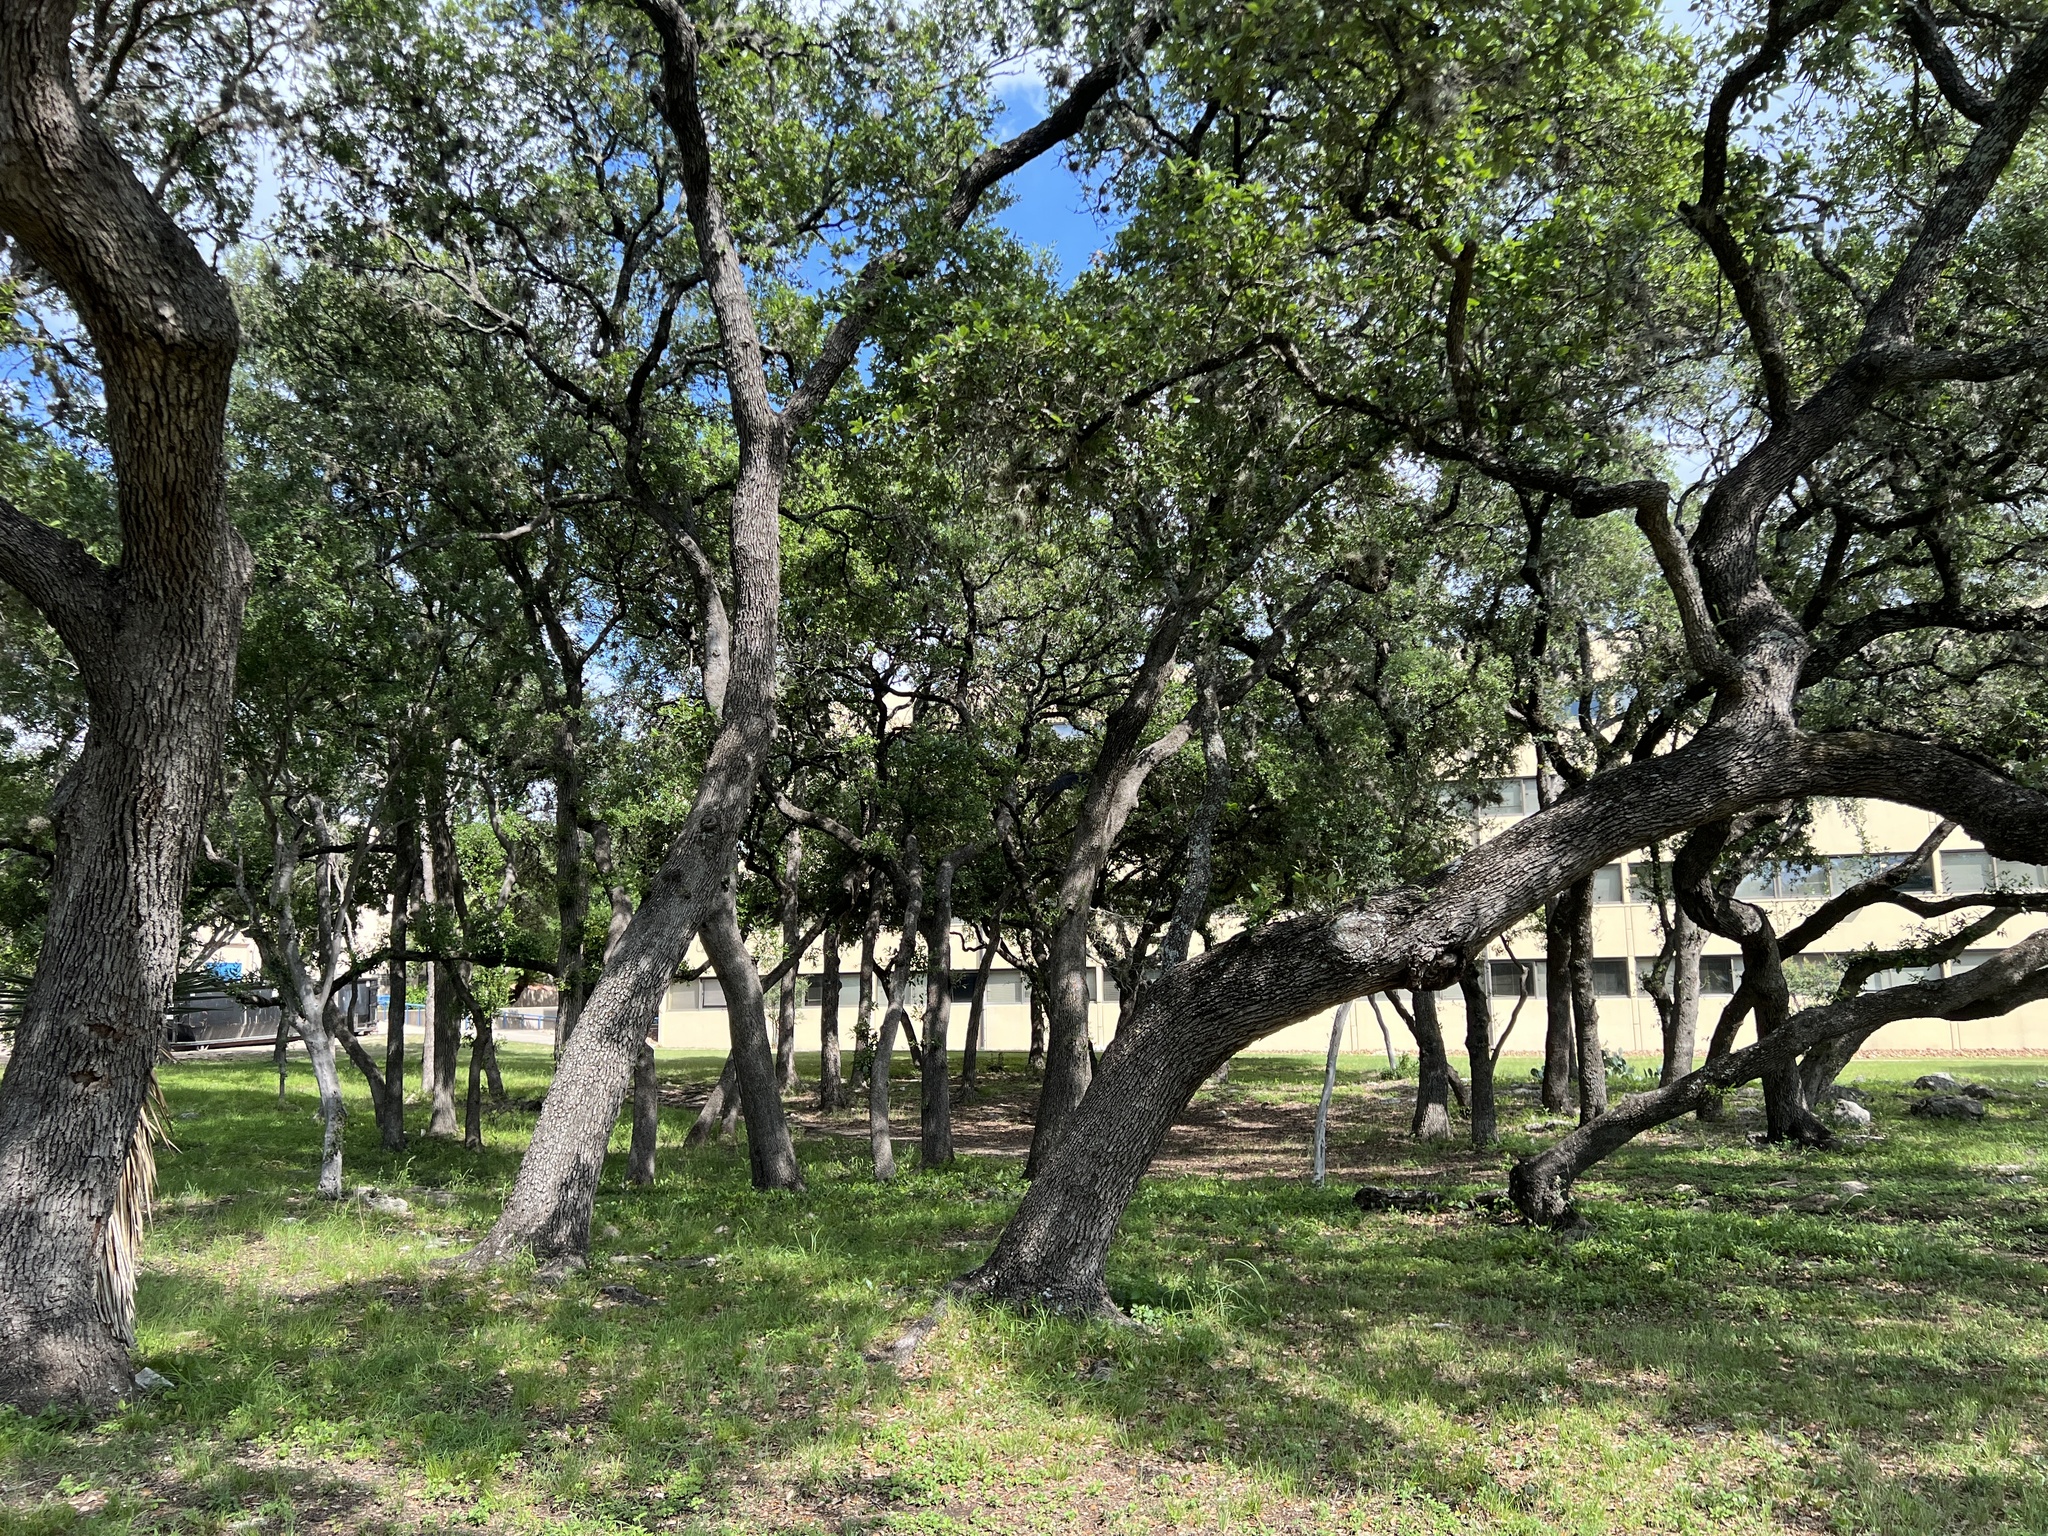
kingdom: Animalia
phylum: Chordata
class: Aves
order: Passeriformes
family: Corvidae
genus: Corvus
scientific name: Corvus corax
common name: Common raven
